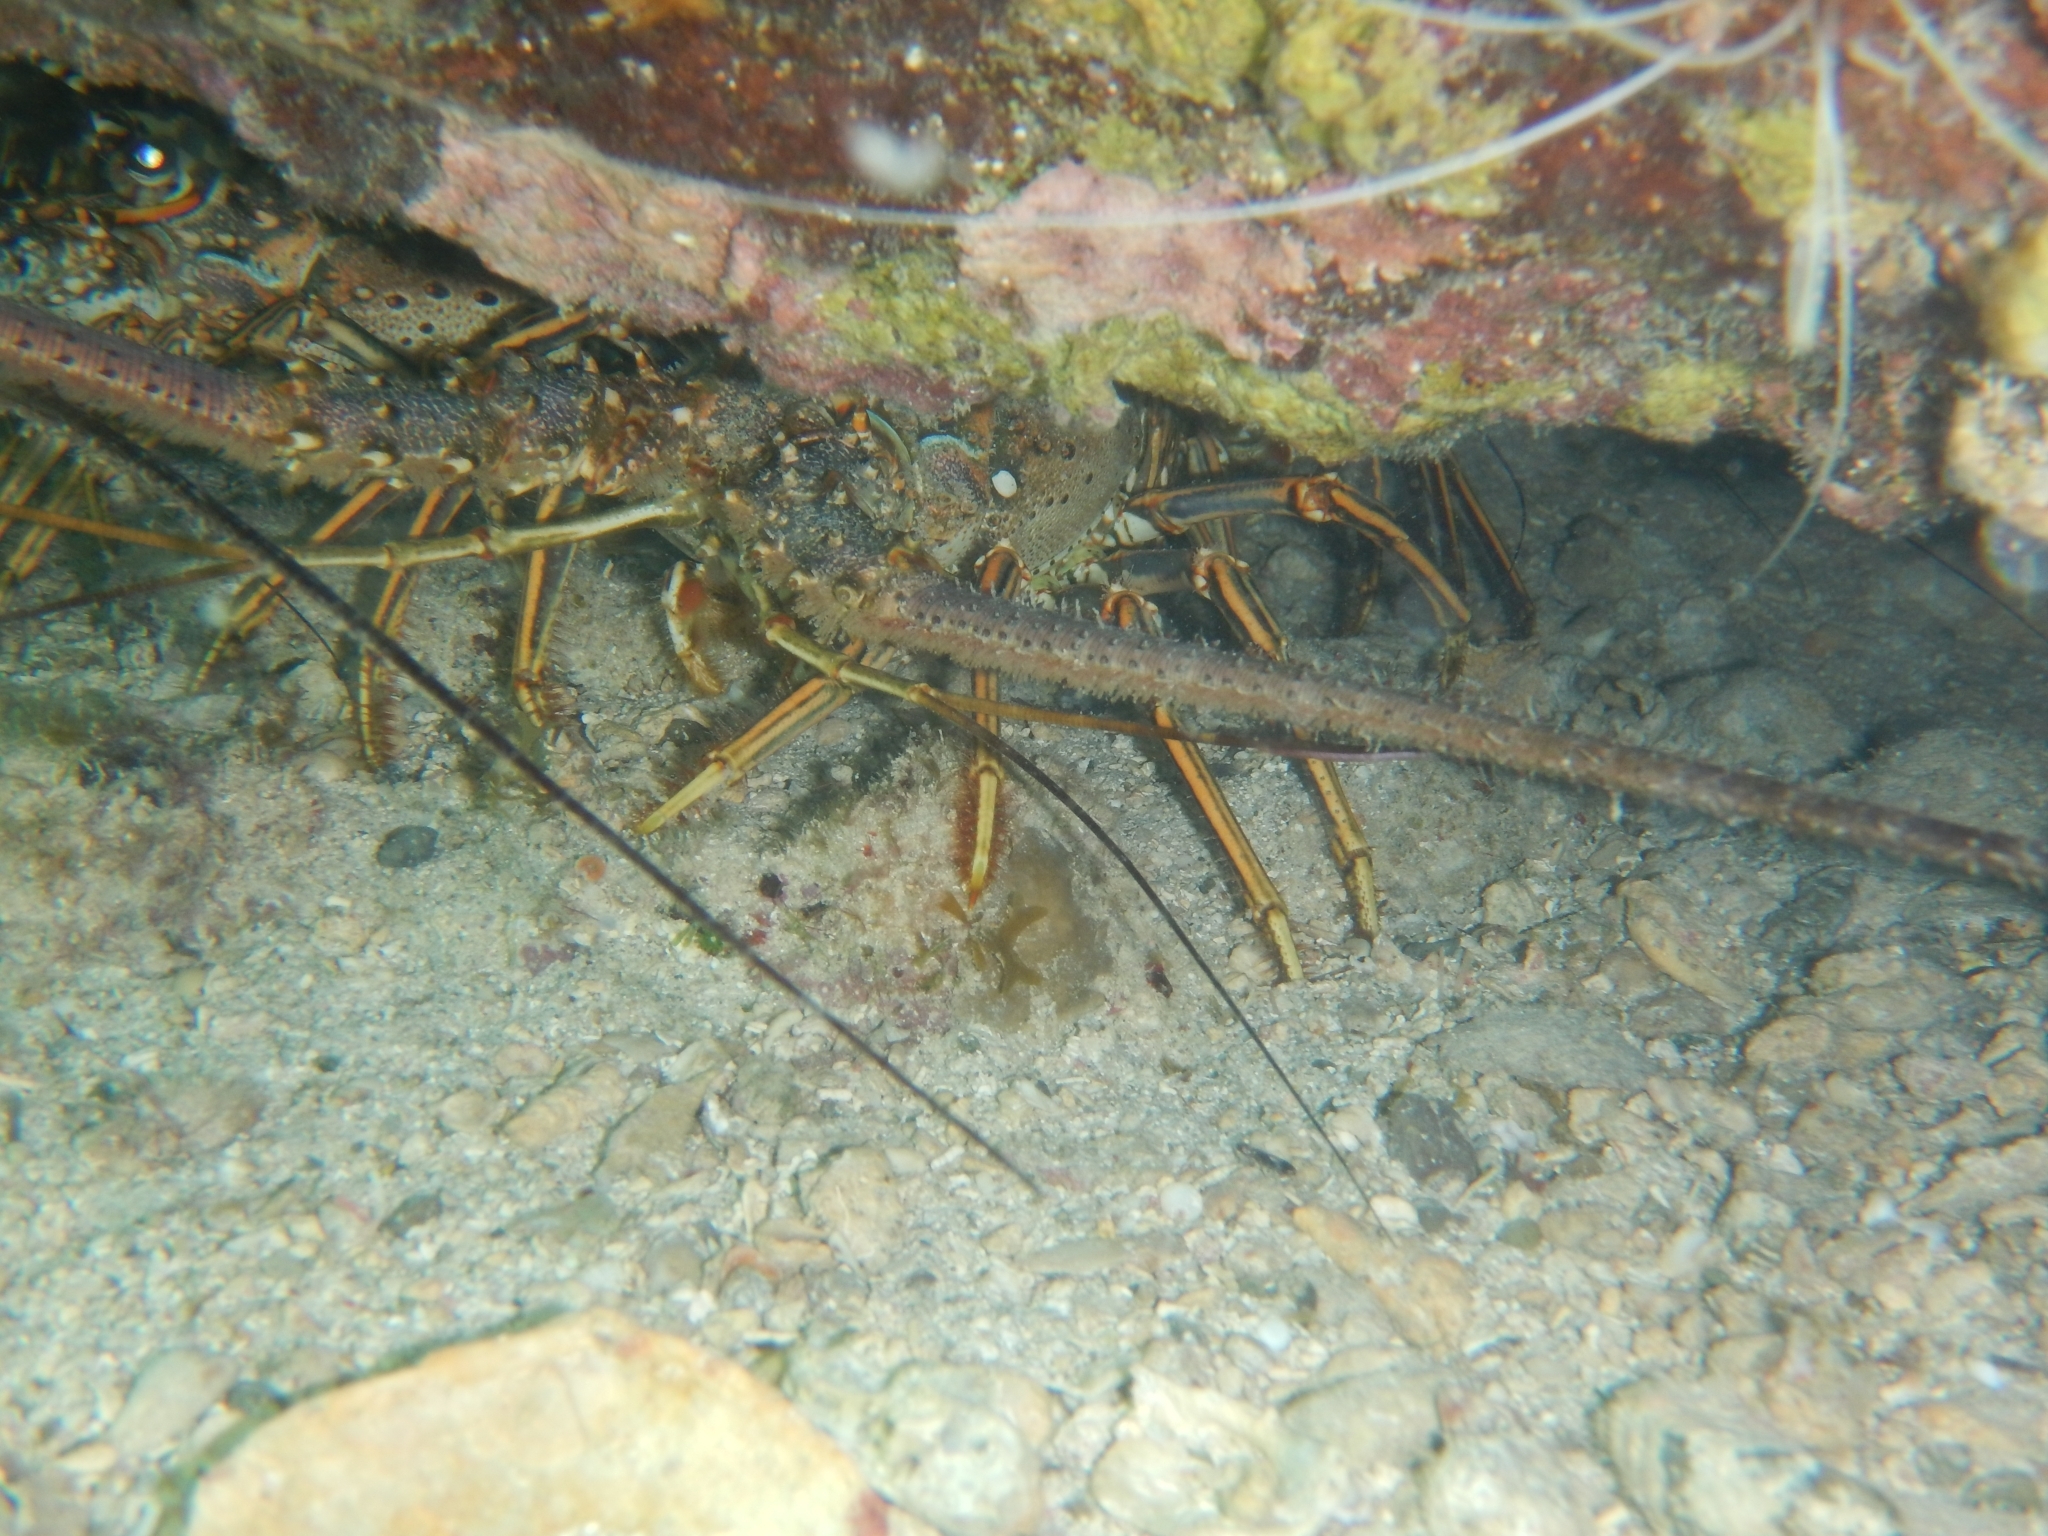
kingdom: Animalia
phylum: Arthropoda
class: Malacostraca
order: Decapoda
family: Palinuridae
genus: Panulirus
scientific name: Panulirus argus
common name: Caribbean spiny lobster
